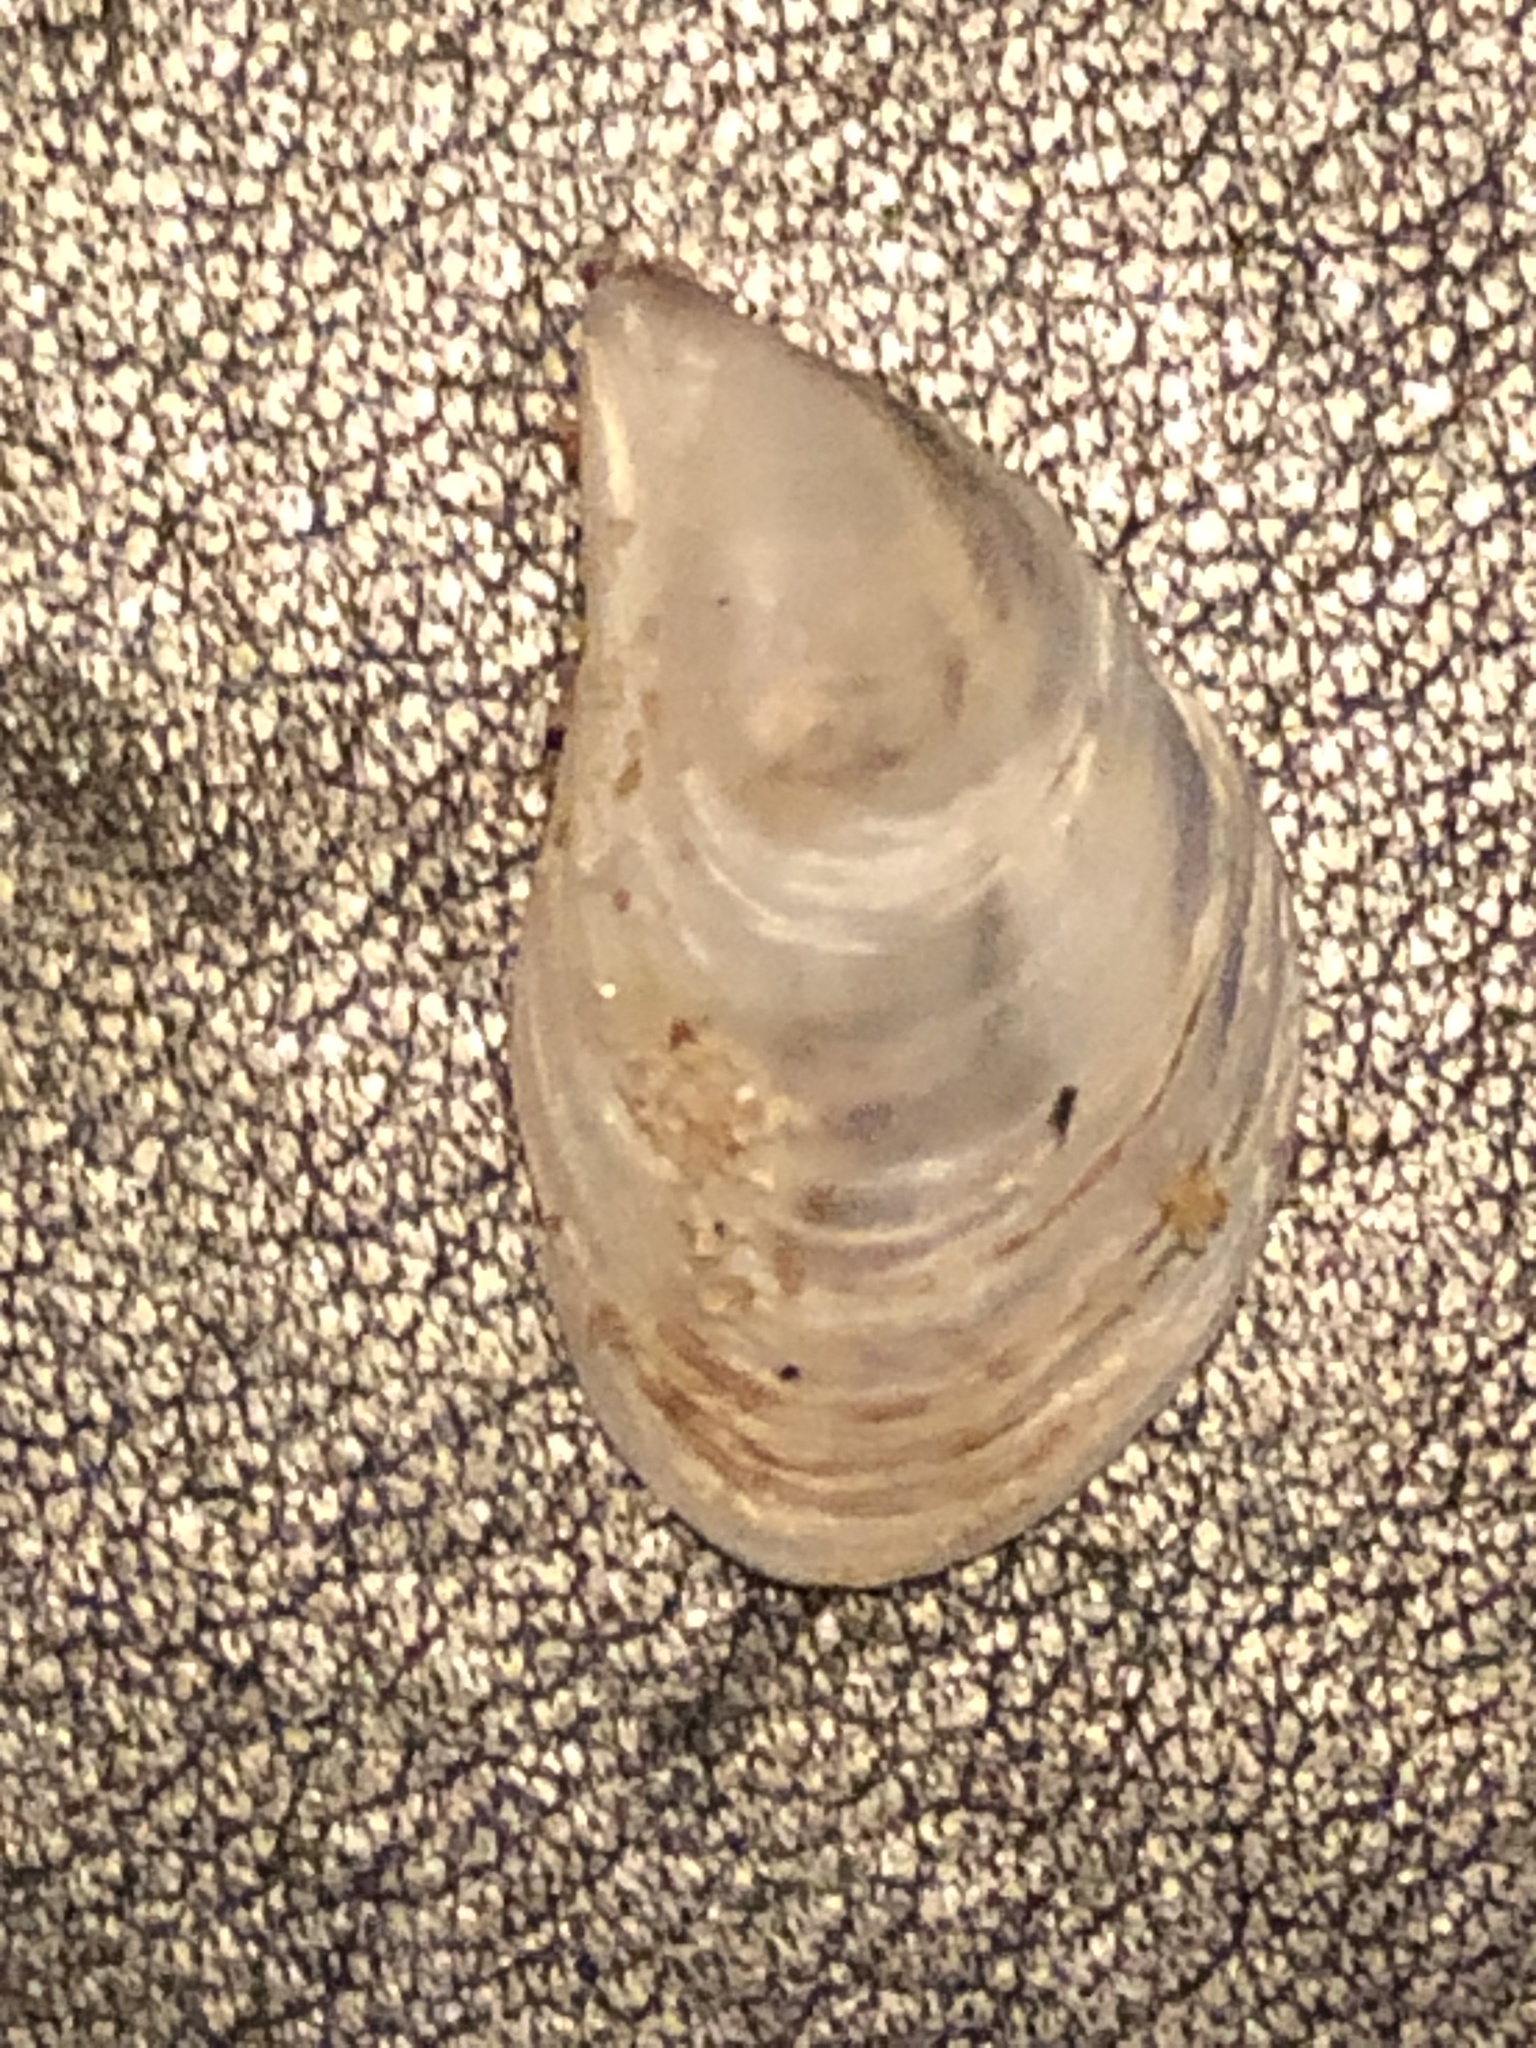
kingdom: Animalia
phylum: Mollusca
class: Bivalvia
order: Myida
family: Dreissenidae
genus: Dreissena
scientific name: Dreissena bugensis
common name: Quagga mussel
